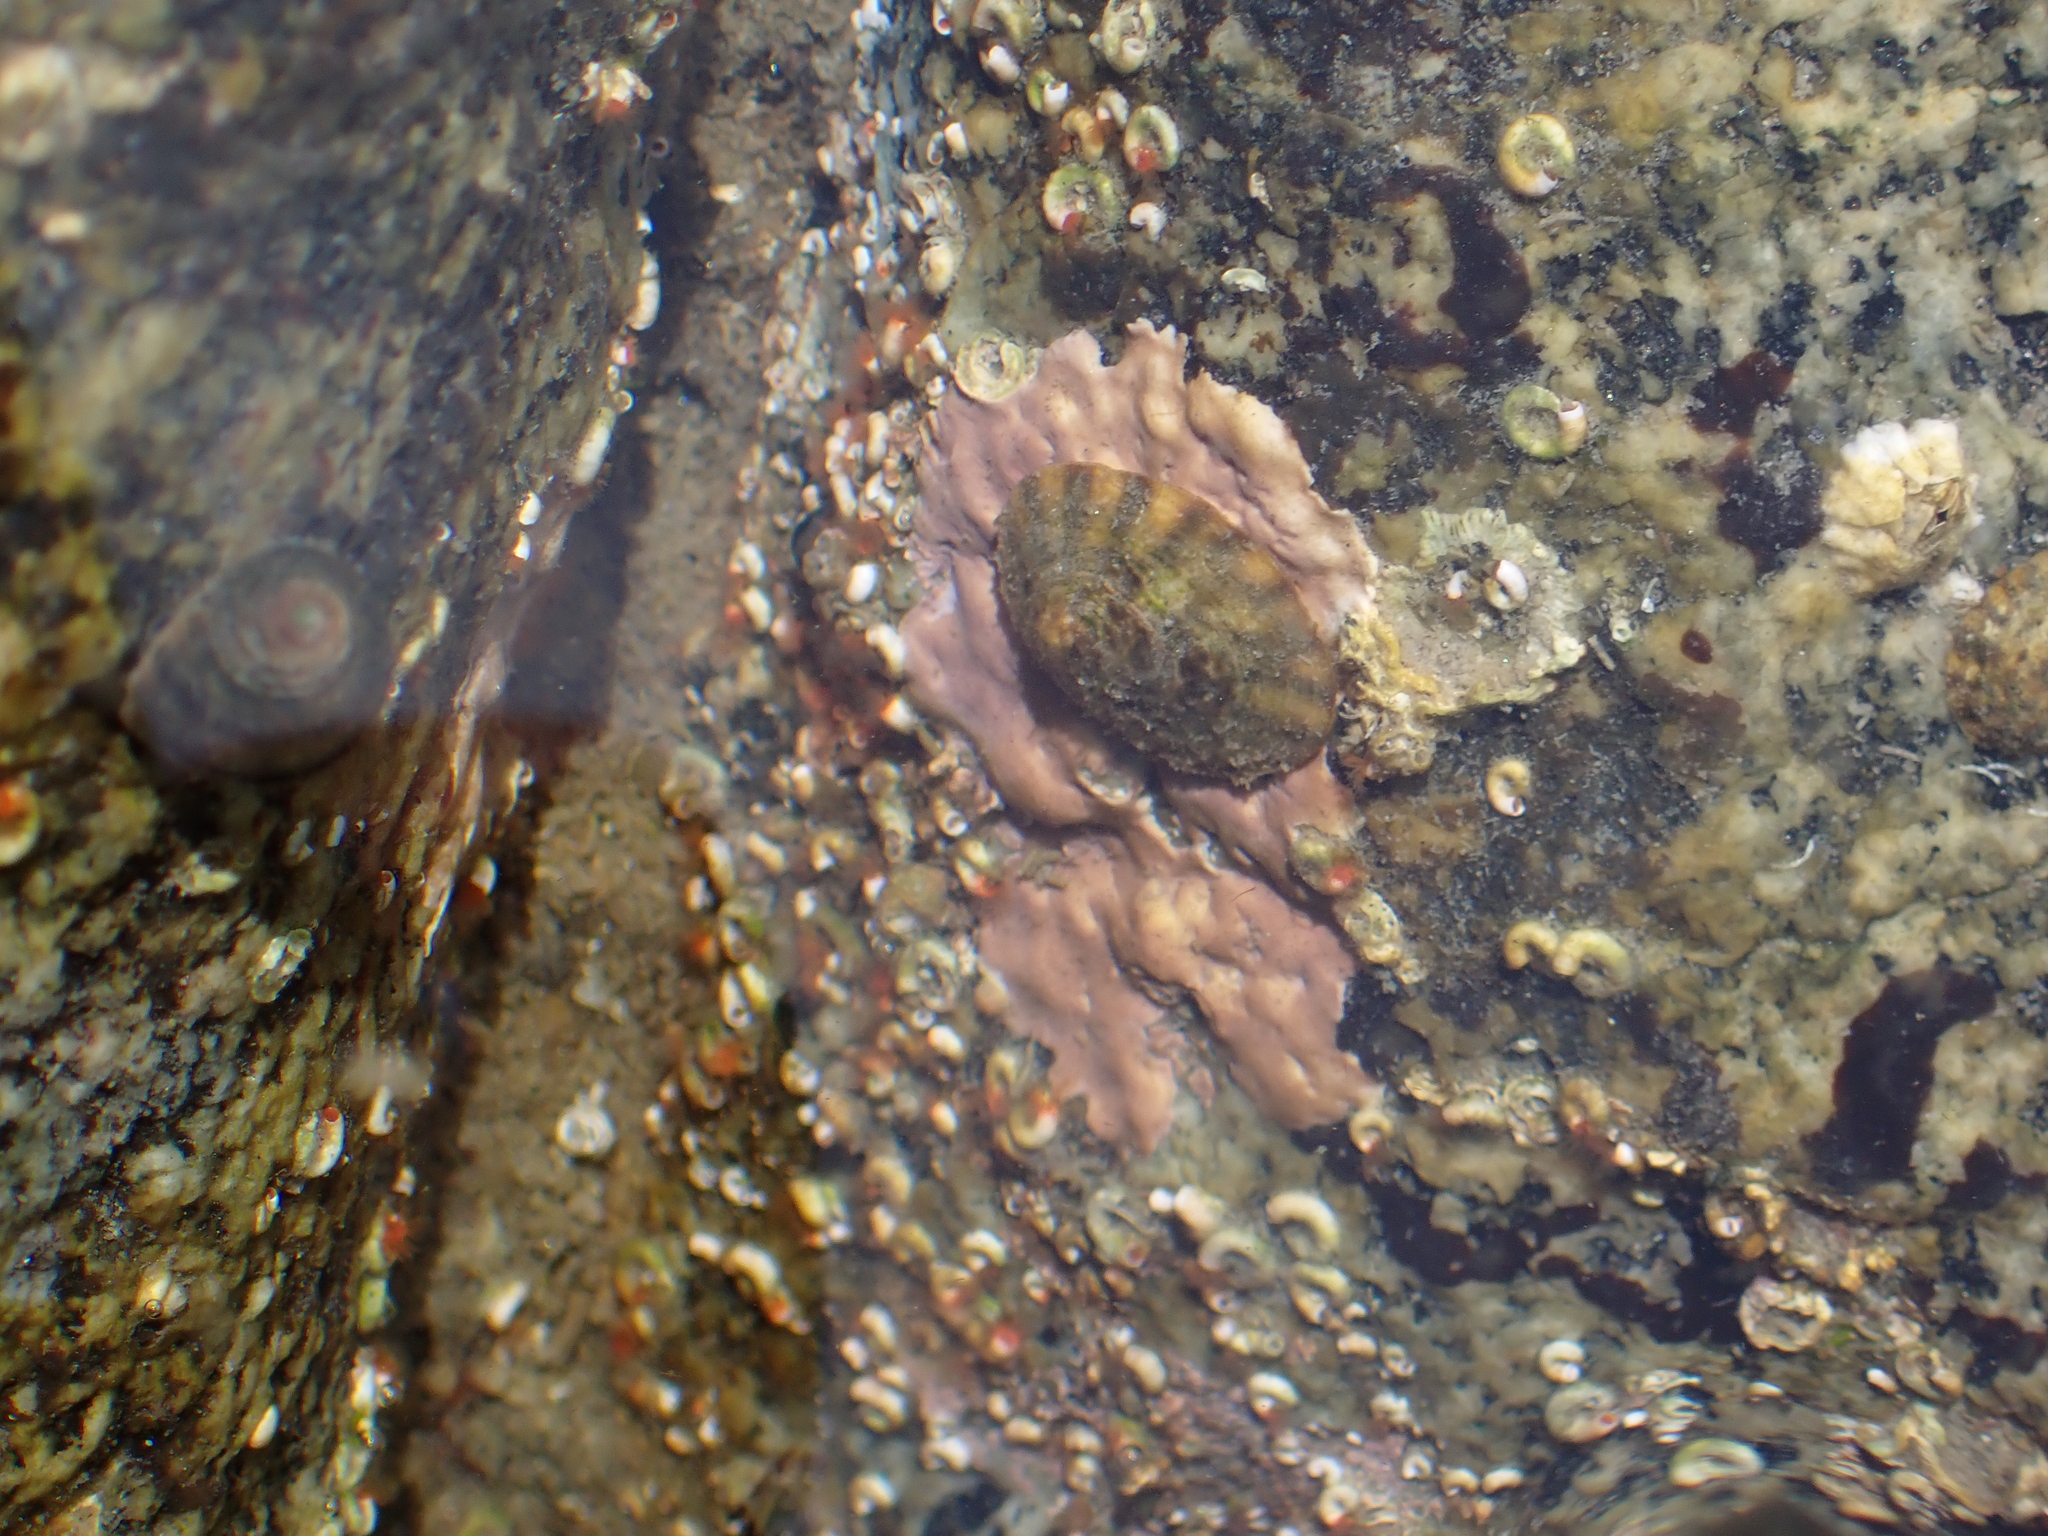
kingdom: Animalia
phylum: Mollusca
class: Gastropoda
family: Lottiidae
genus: Lottia
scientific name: Lottia scutum
